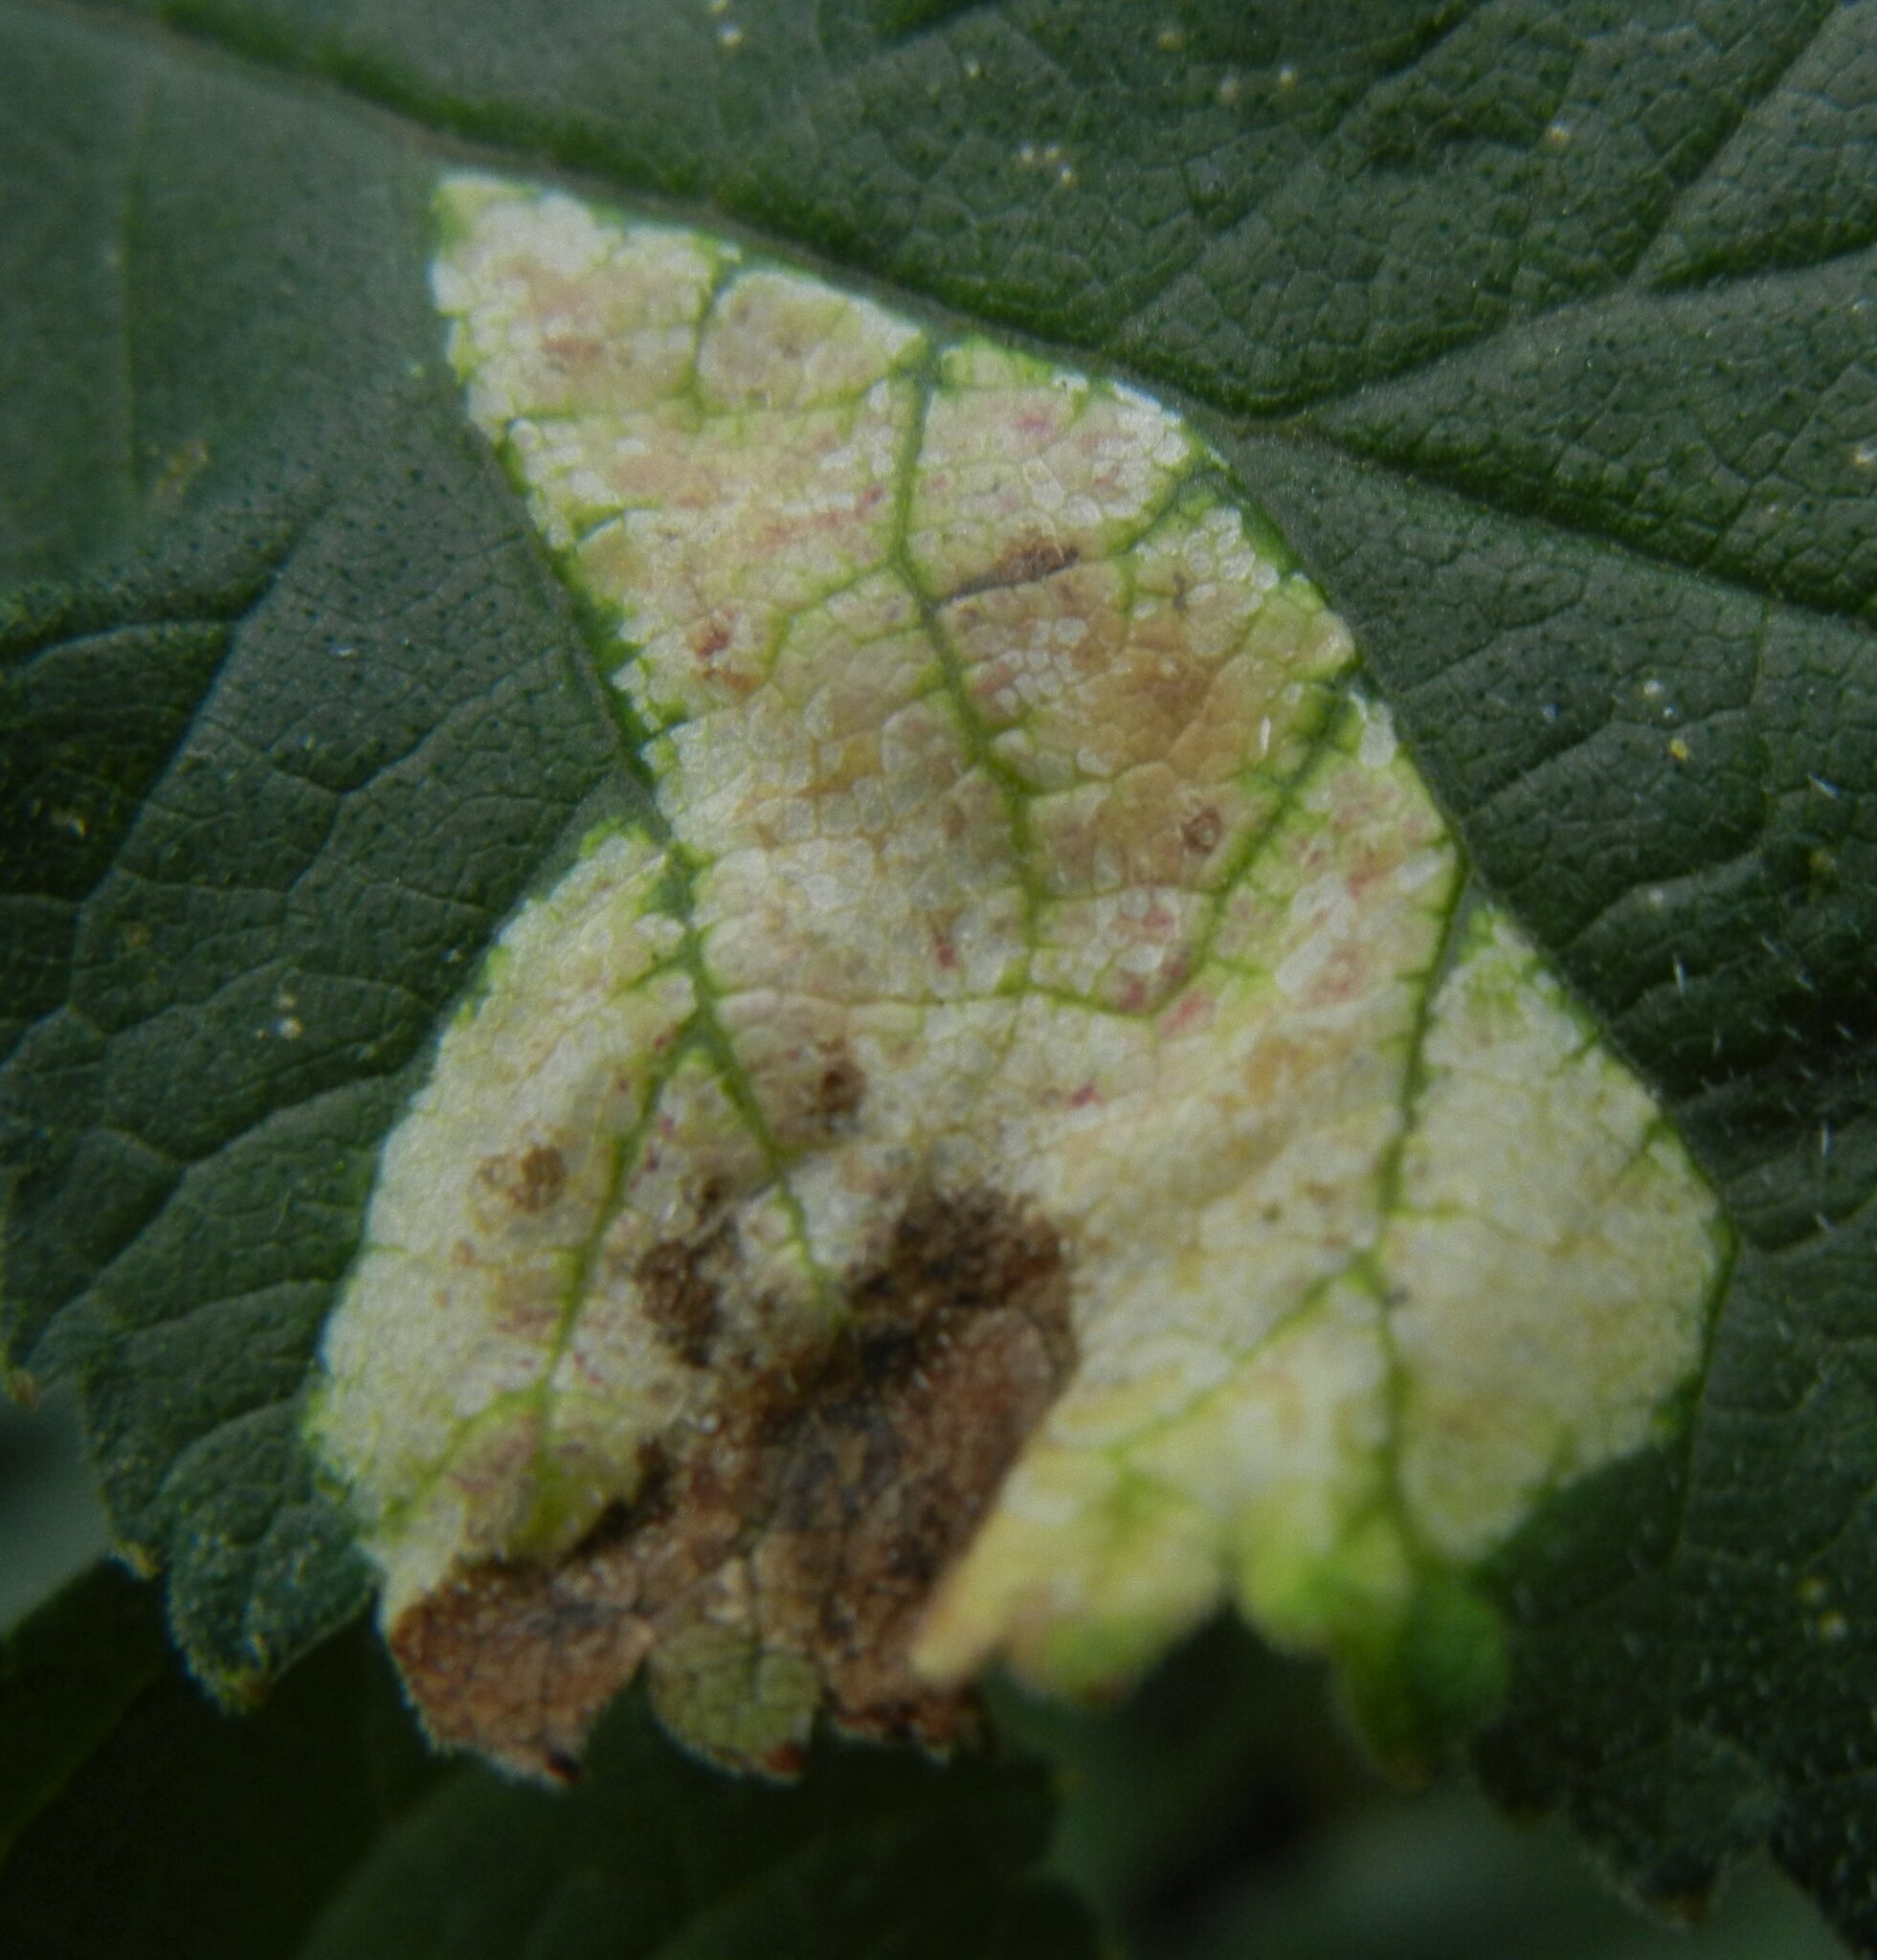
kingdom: Animalia
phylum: Arthropoda
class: Insecta
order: Diptera
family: Agromyzidae
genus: Phytomyza
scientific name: Phytomyza heracleana
